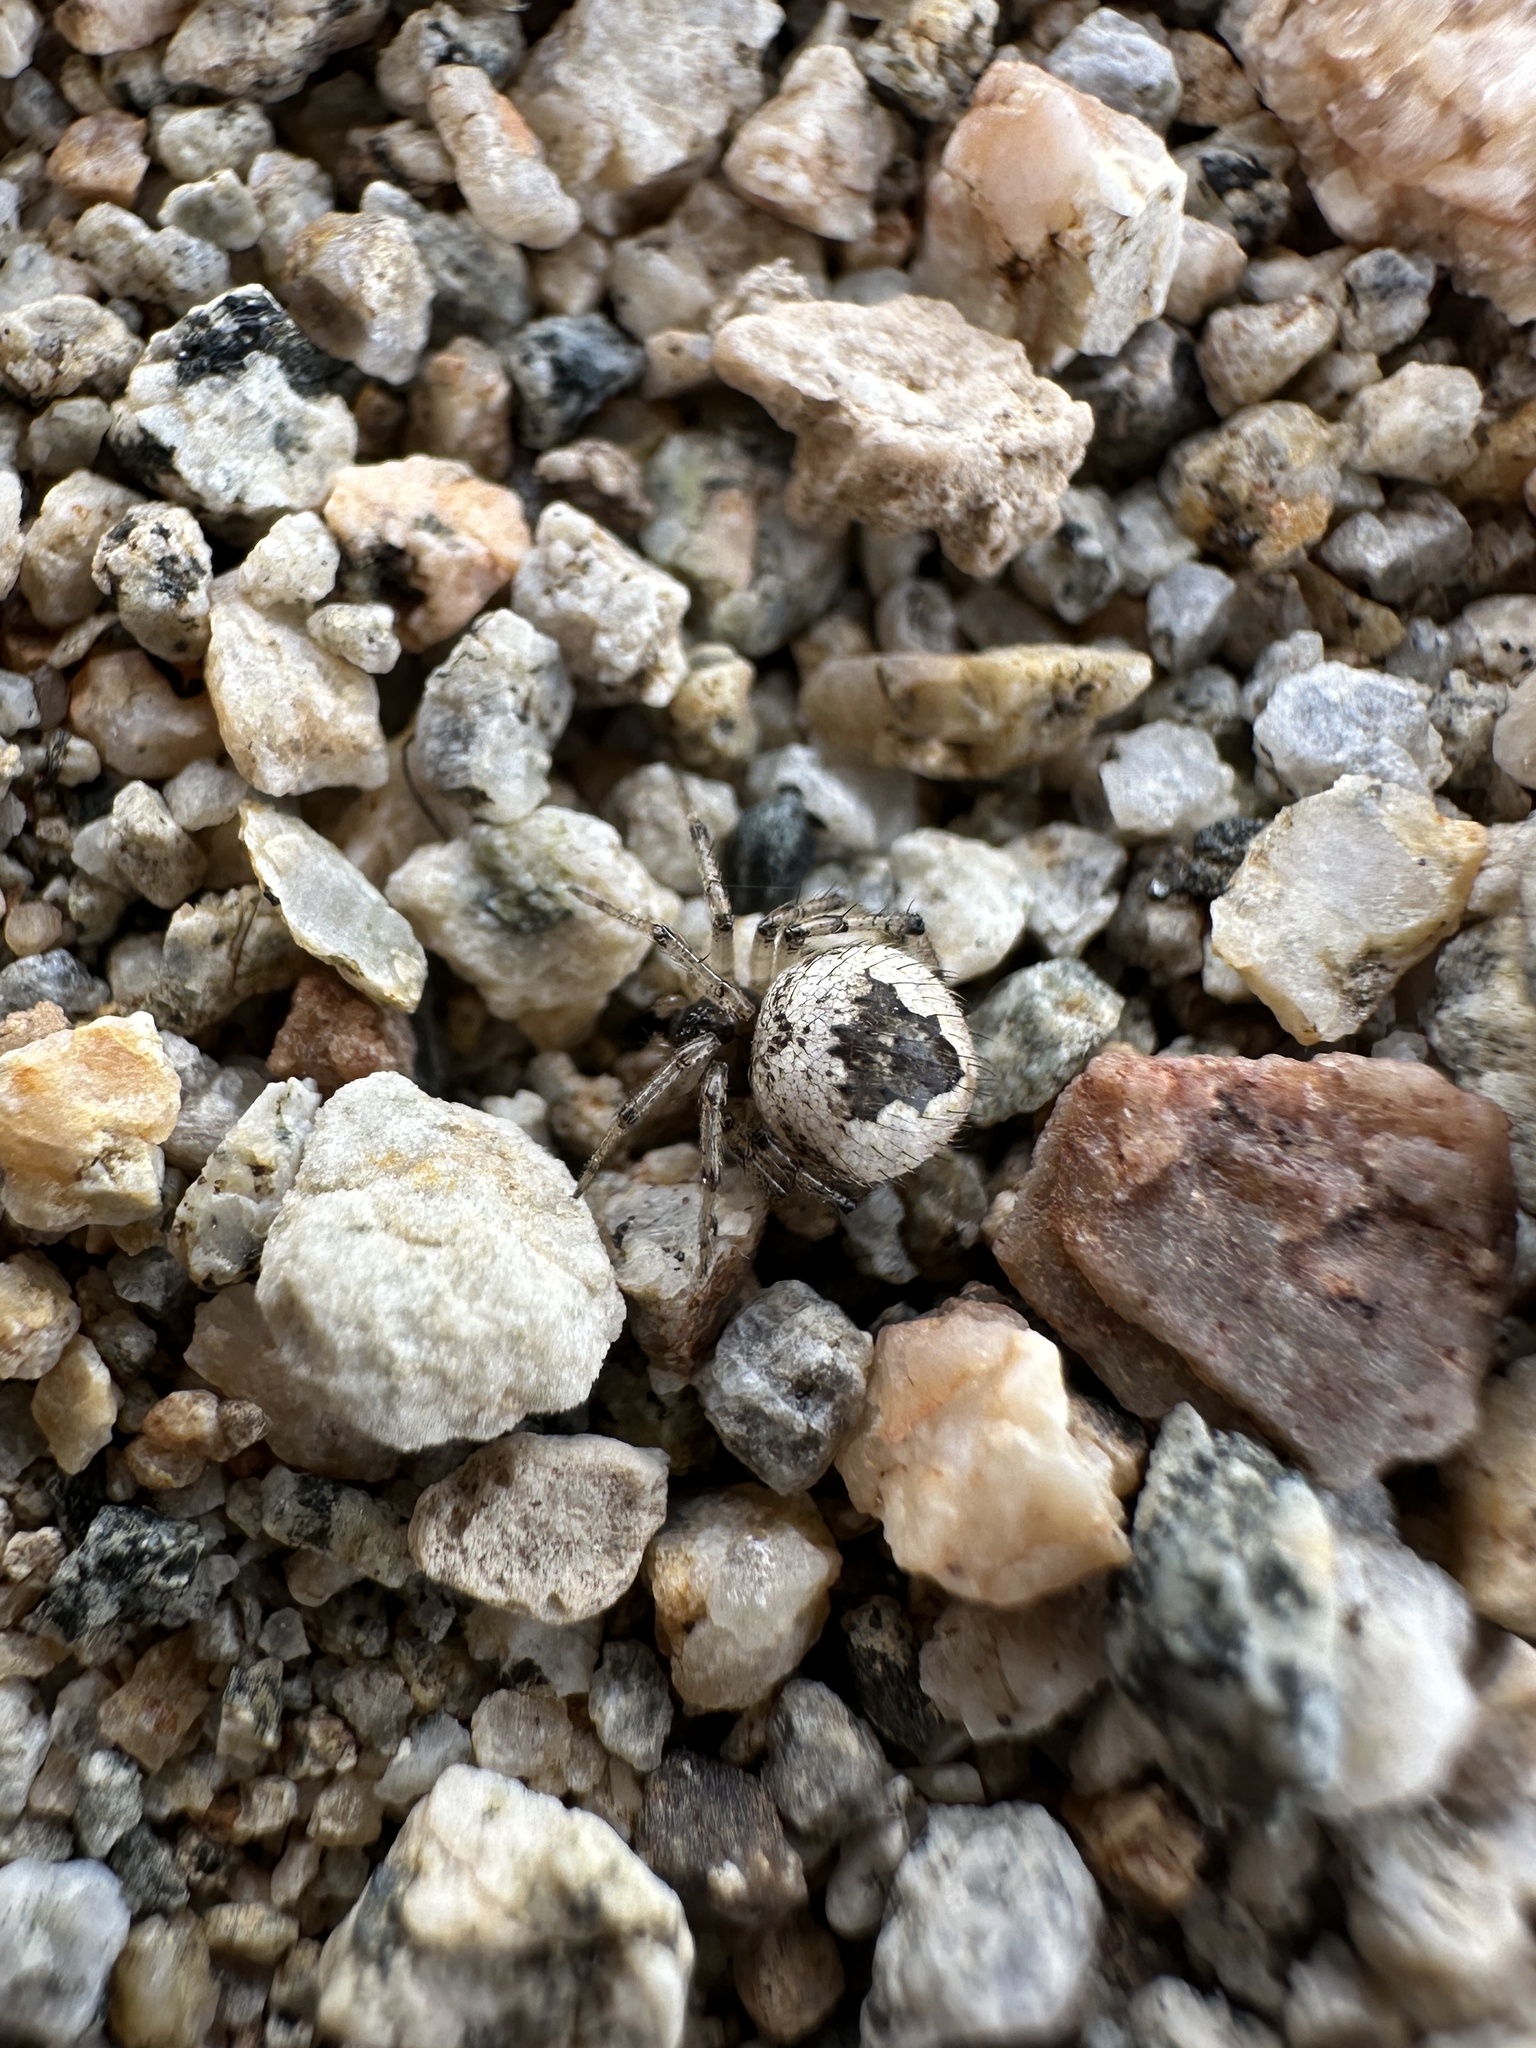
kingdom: Animalia
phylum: Arthropoda
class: Arachnida
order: Araneae
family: Theridiidae
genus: Euryopis
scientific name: Euryopis californica
